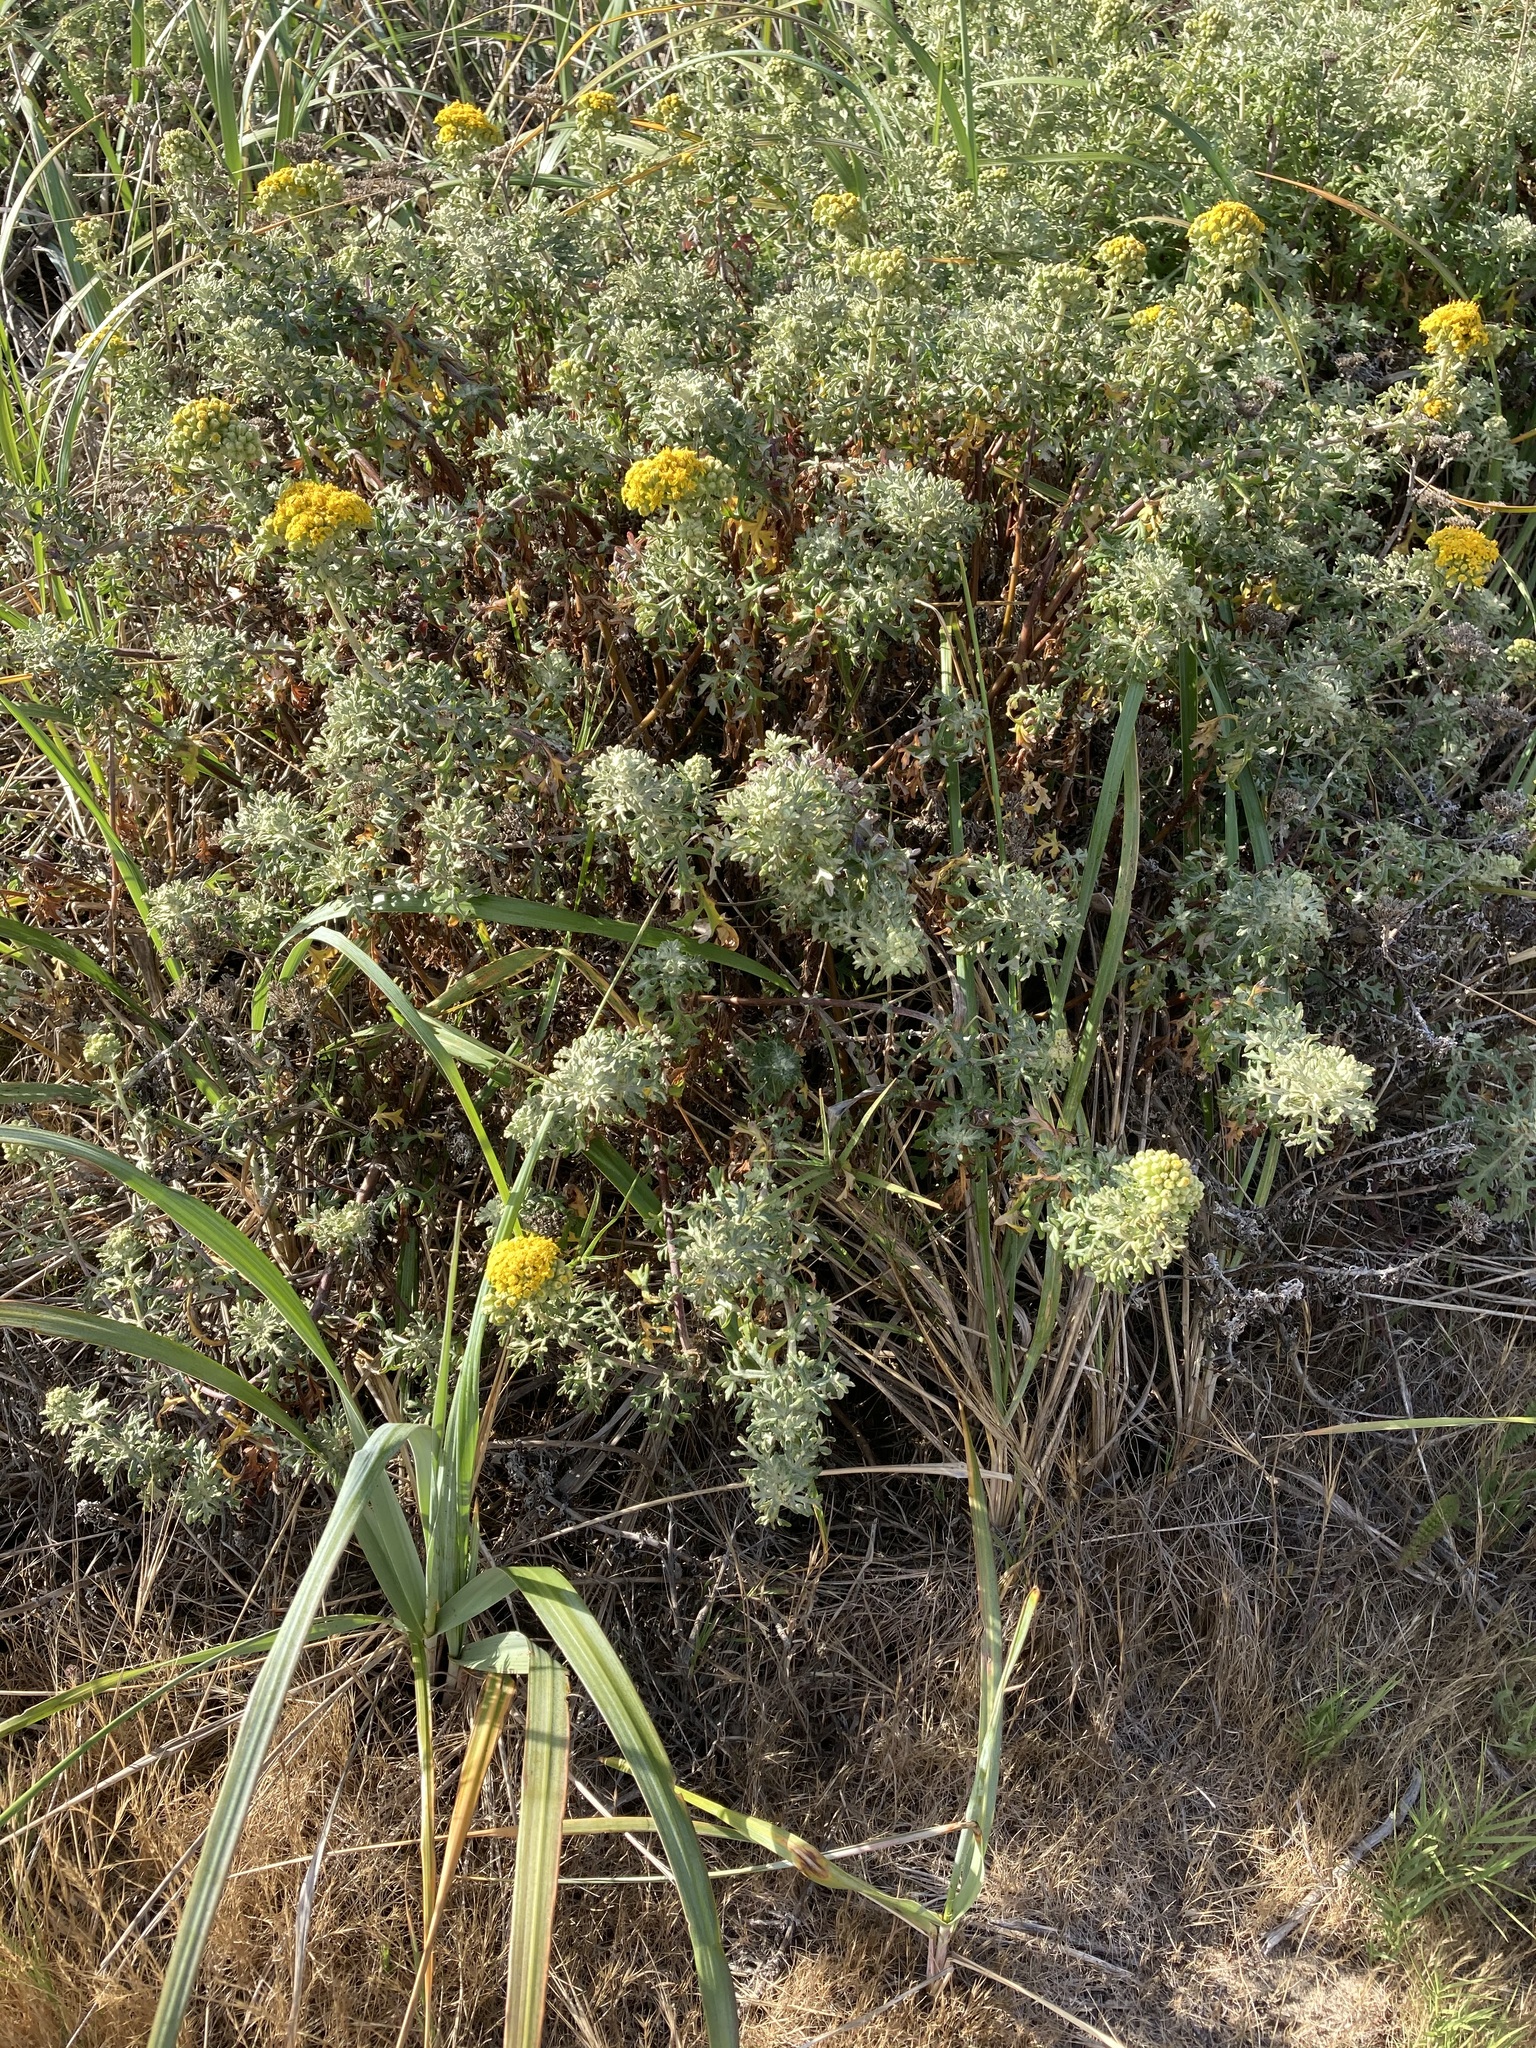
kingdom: Plantae
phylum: Tracheophyta
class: Magnoliopsida
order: Asterales
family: Asteraceae
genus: Eriophyllum
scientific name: Eriophyllum staechadifolium
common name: Lizardtail
